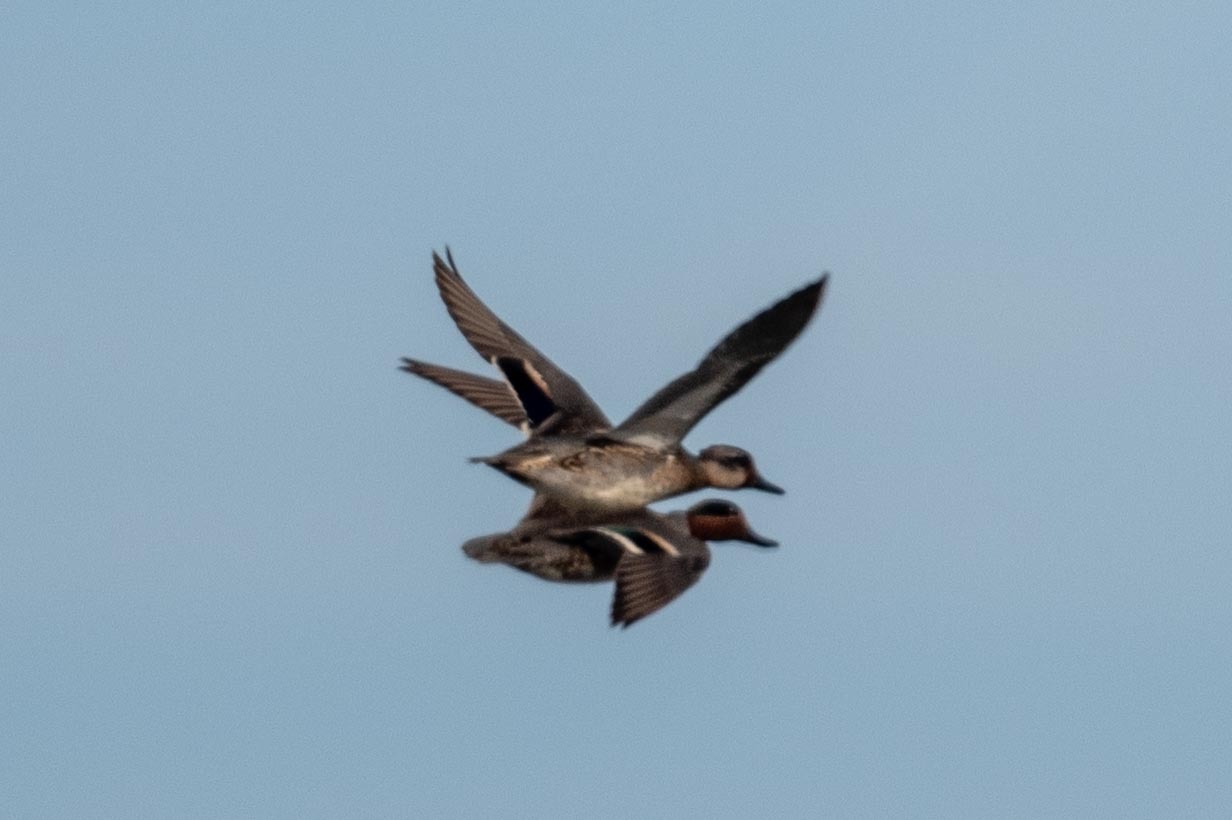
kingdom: Animalia
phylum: Chordata
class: Aves
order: Anseriformes
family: Anatidae
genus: Anas
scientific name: Anas crecca
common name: Eurasian teal
